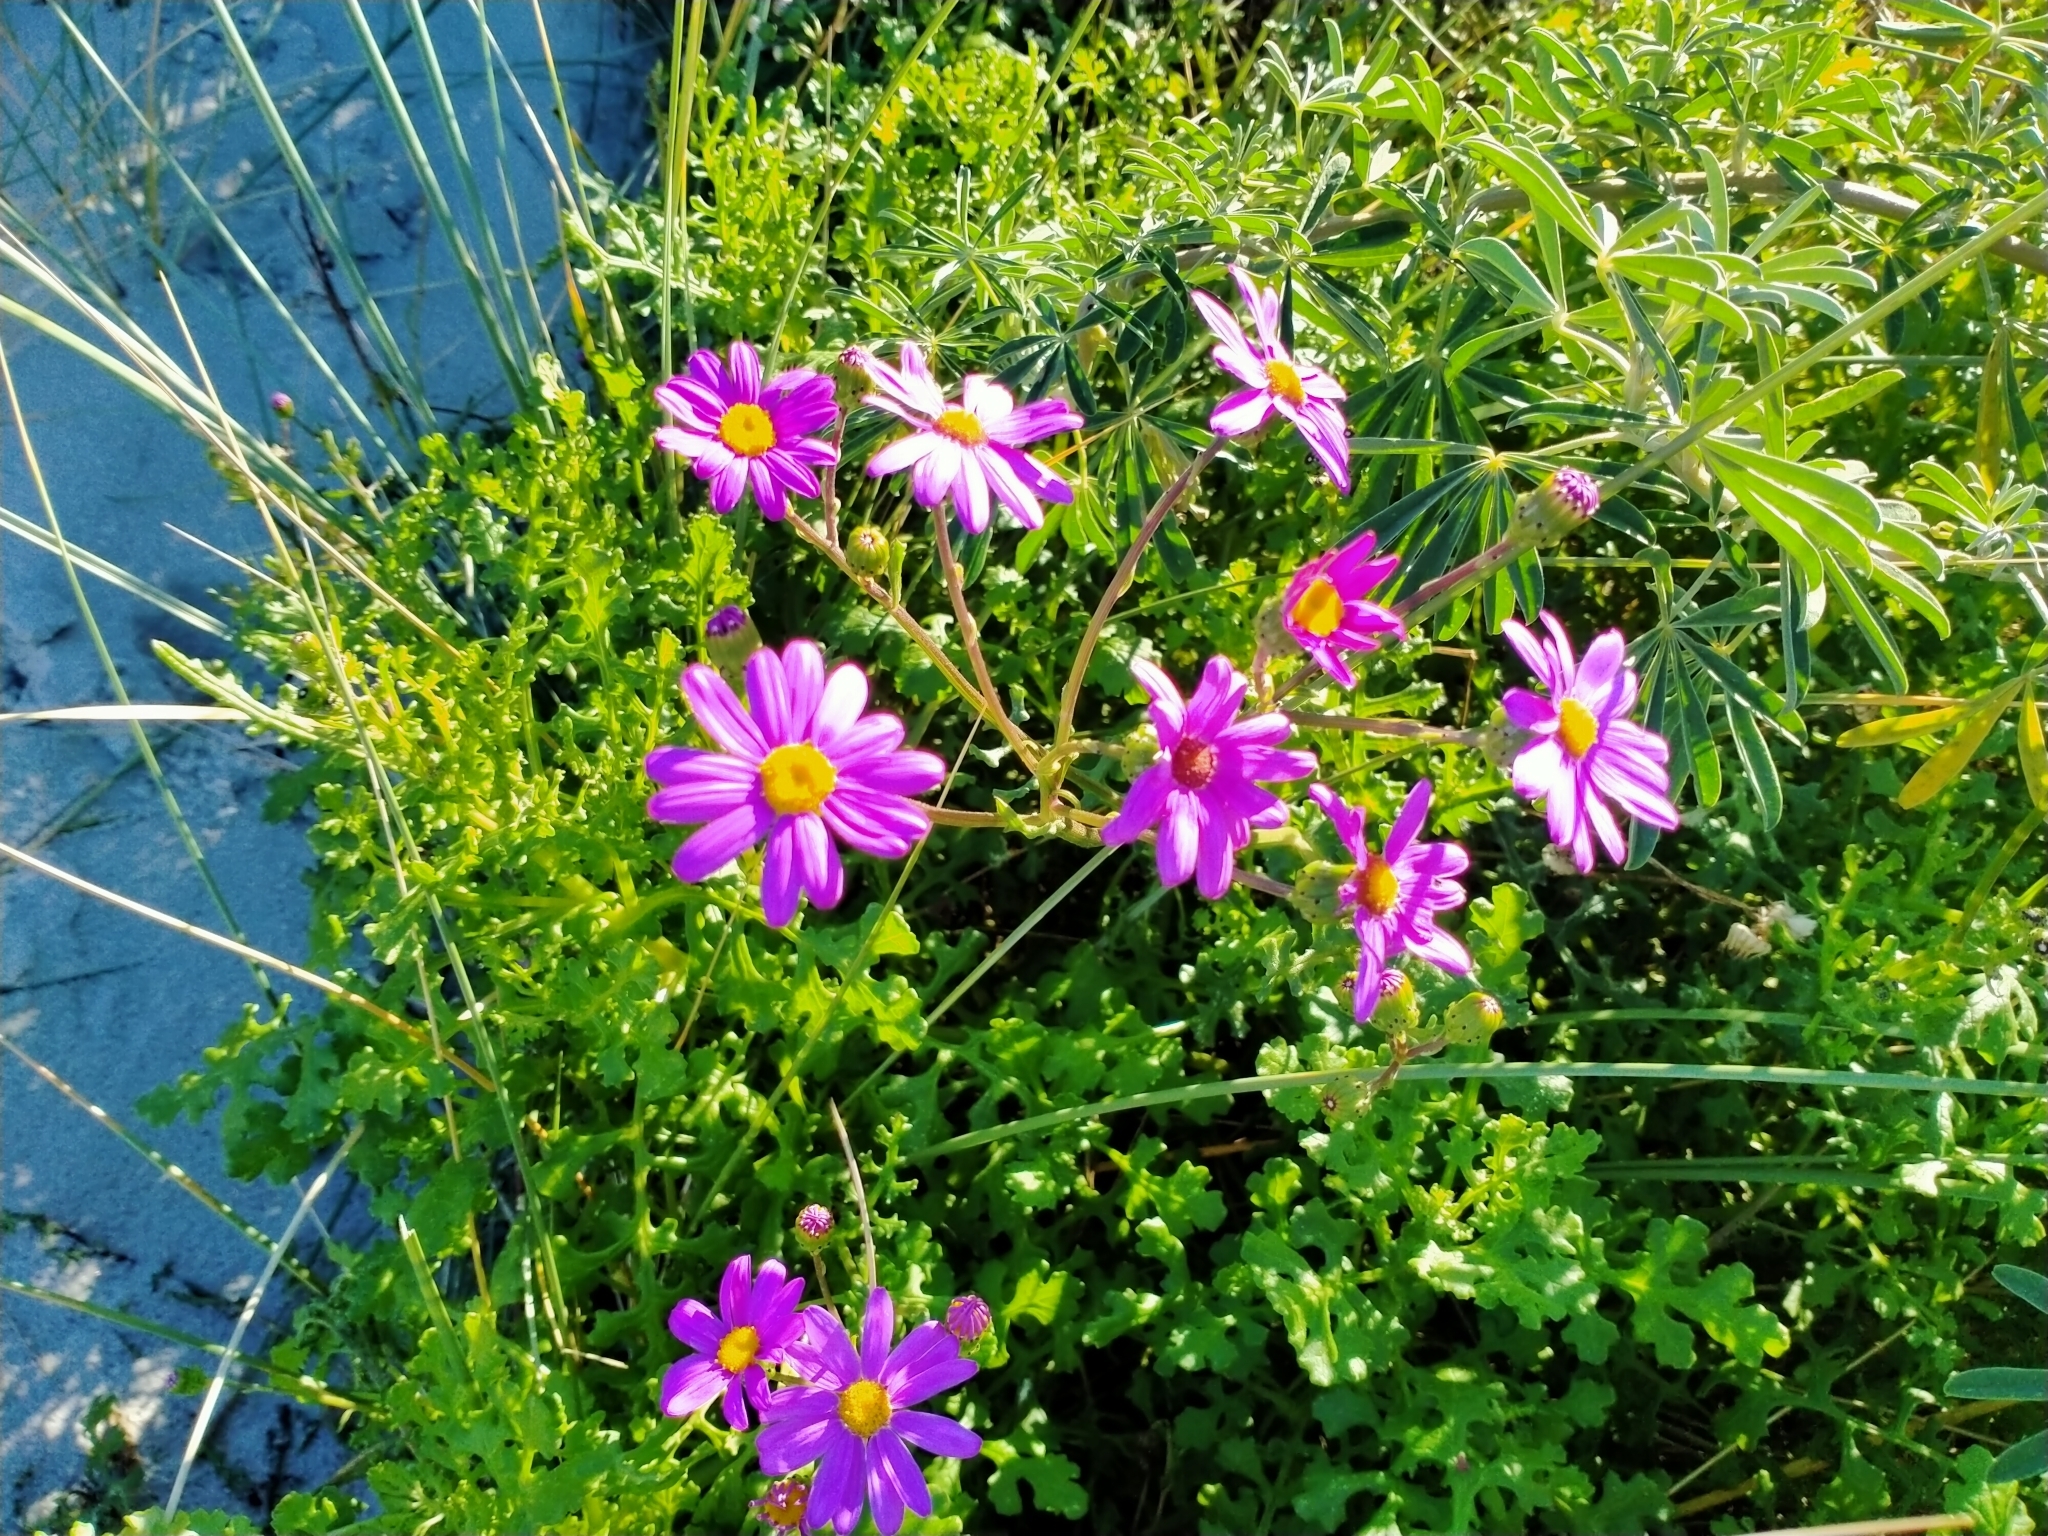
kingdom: Plantae
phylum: Tracheophyta
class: Magnoliopsida
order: Asterales
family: Asteraceae
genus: Senecio
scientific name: Senecio elegans
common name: Purple groundsel
